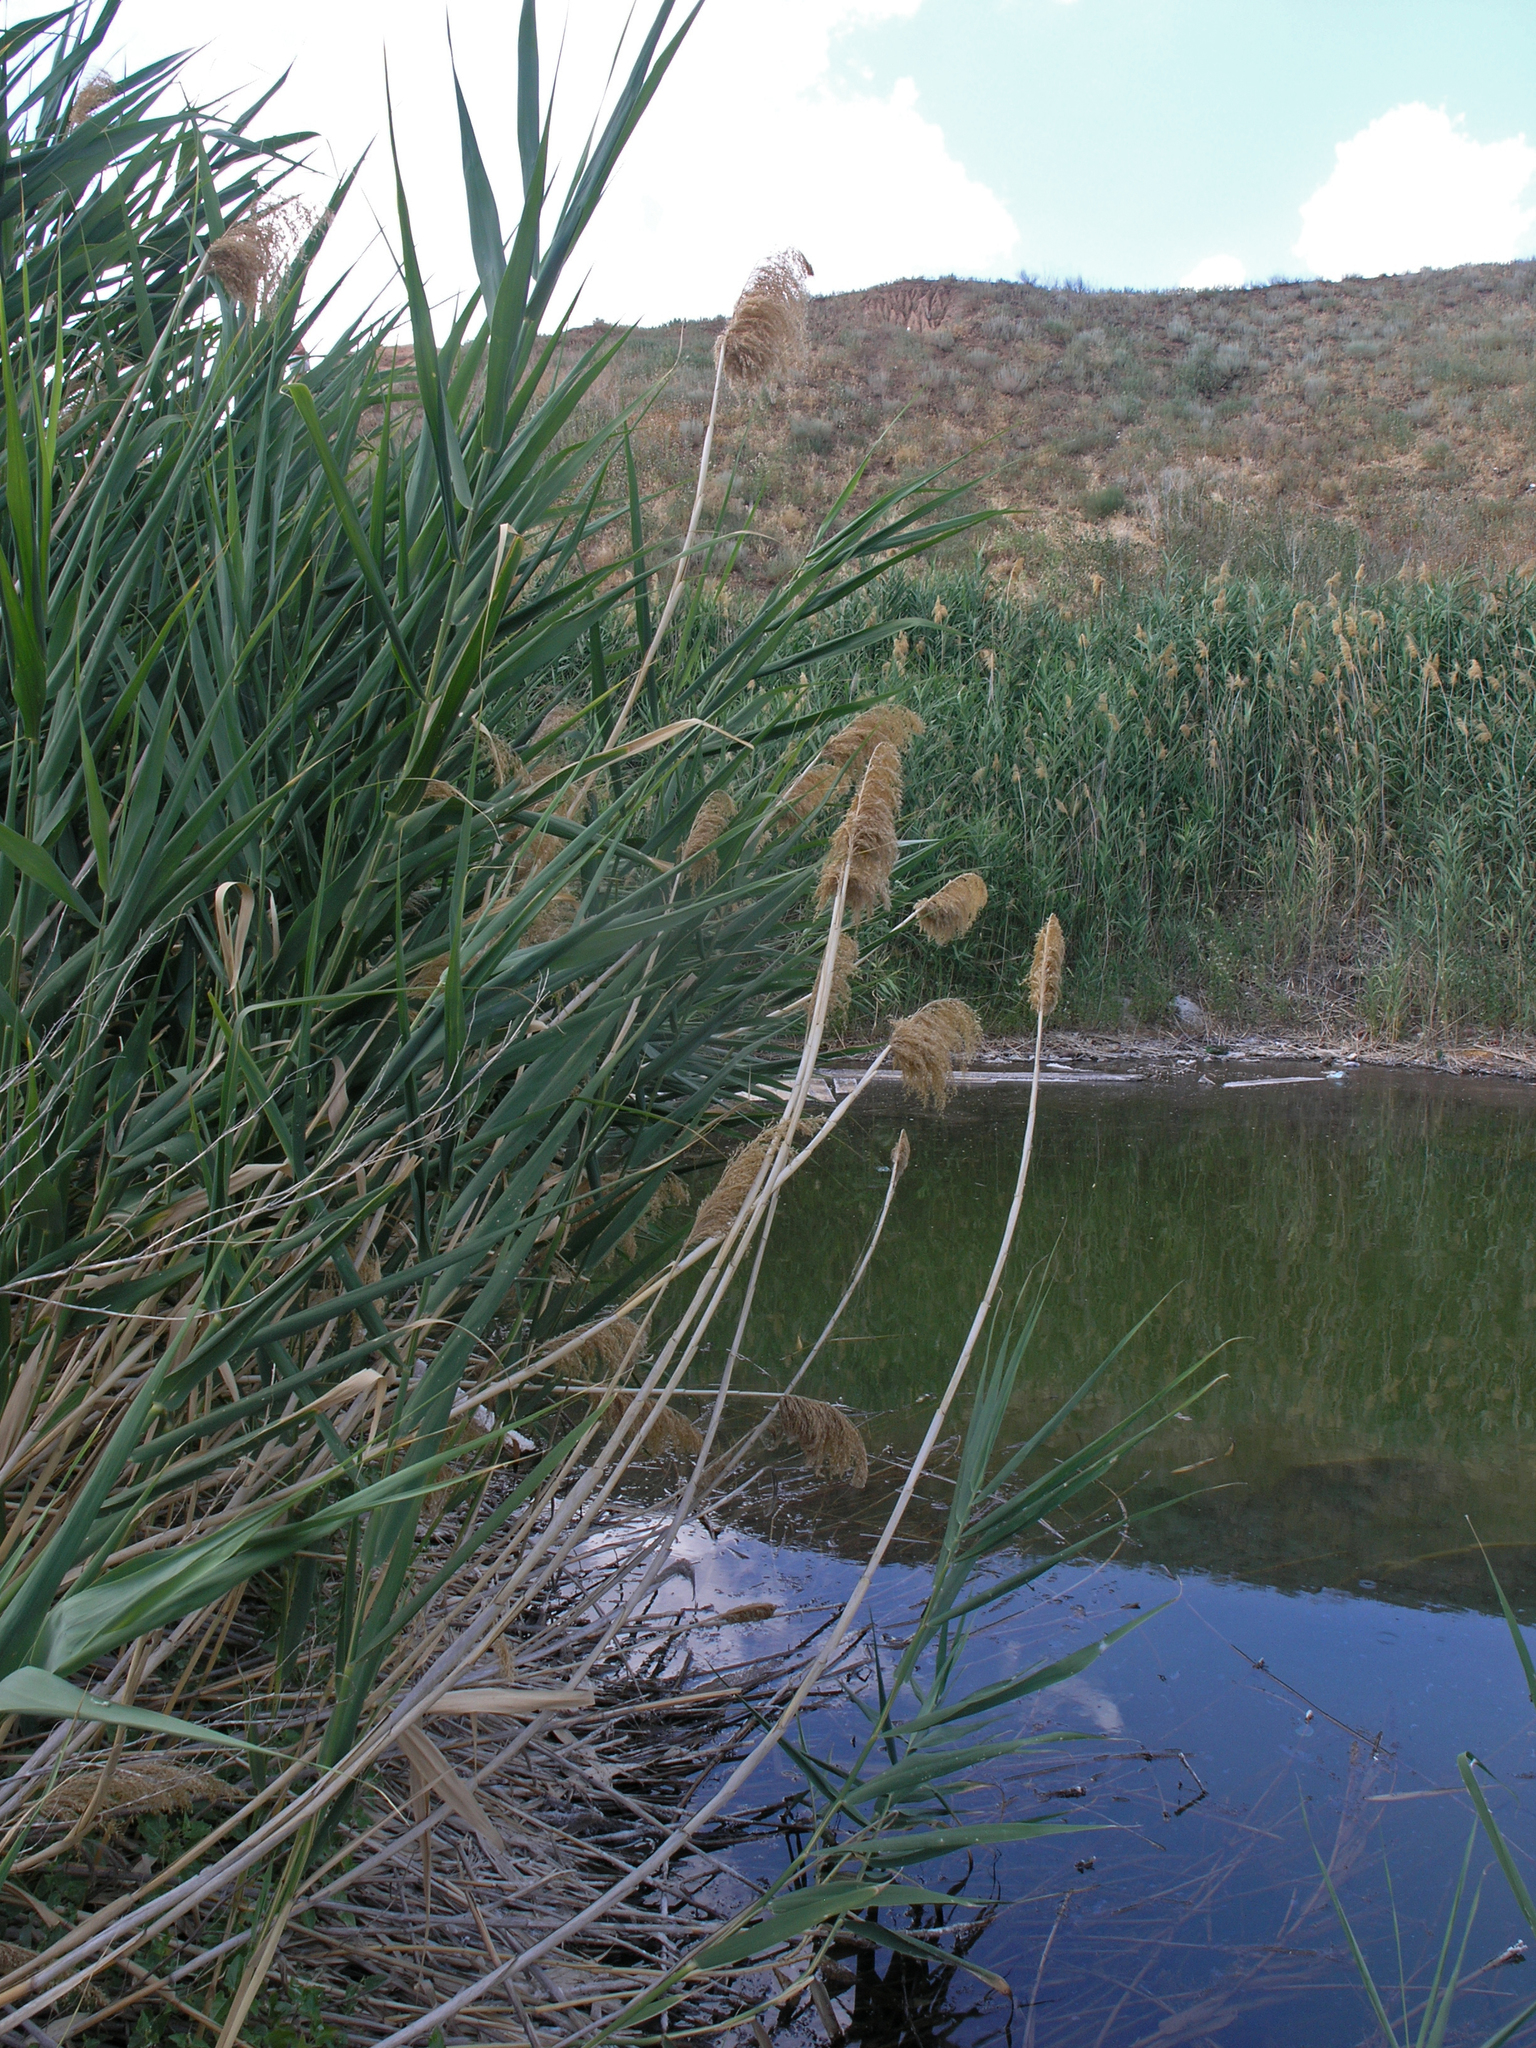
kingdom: Plantae
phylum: Tracheophyta
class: Liliopsida
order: Poales
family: Poaceae
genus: Phragmites
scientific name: Phragmites australis
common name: Common reed
